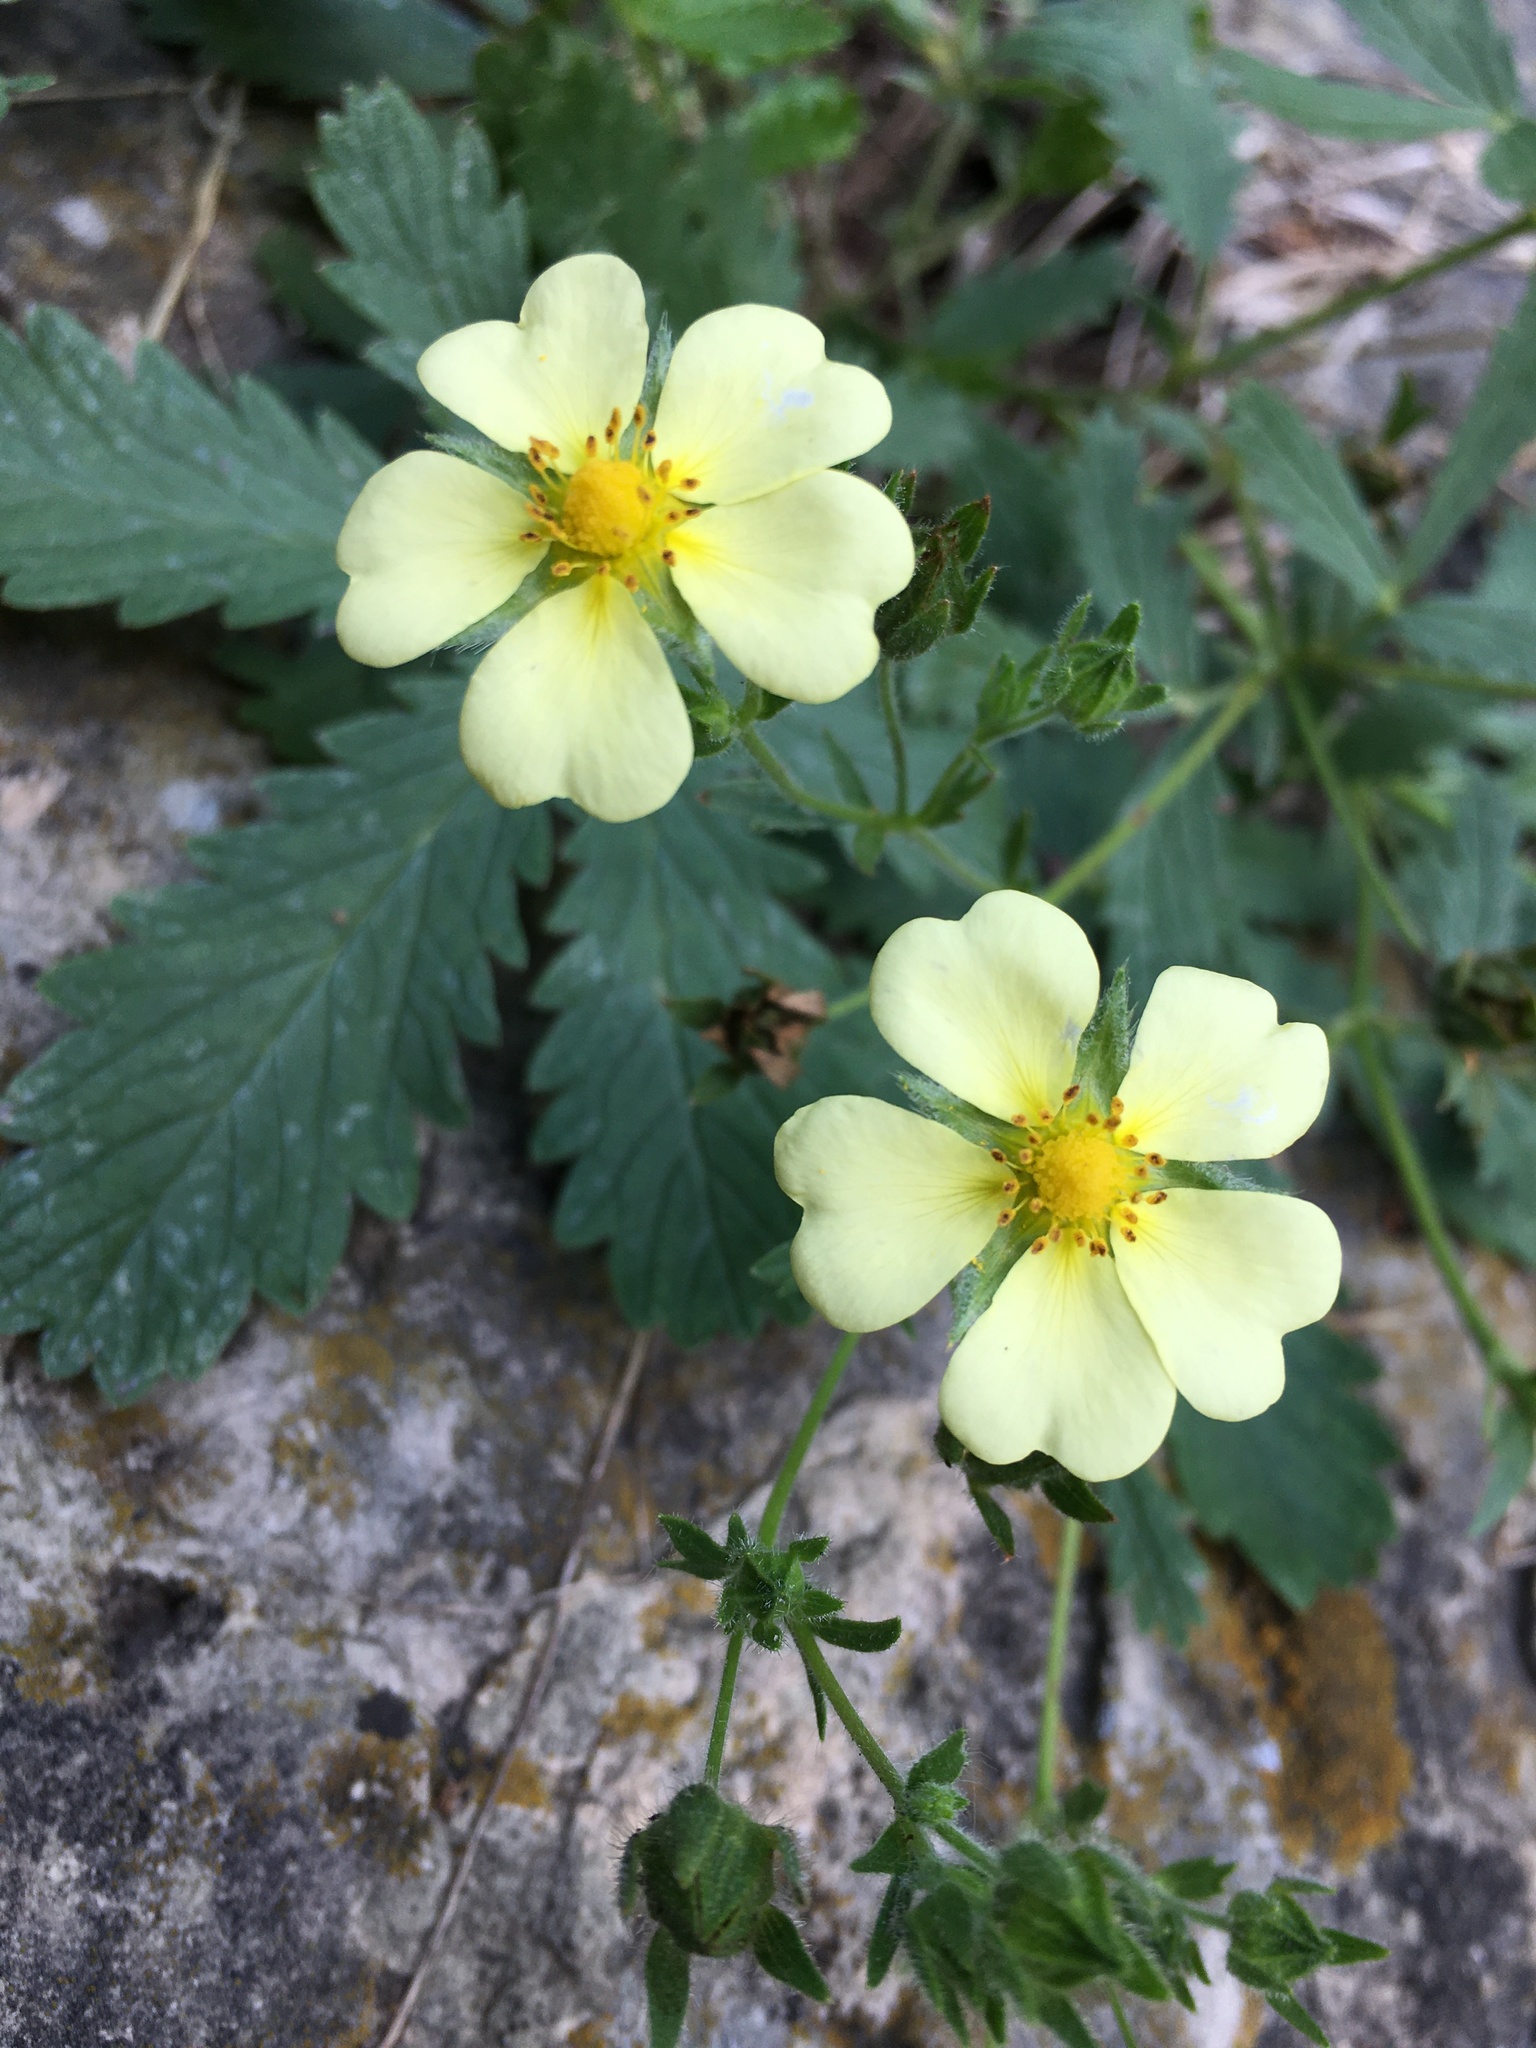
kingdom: Plantae
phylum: Tracheophyta
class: Magnoliopsida
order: Rosales
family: Rosaceae
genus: Potentilla
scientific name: Potentilla recta
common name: Sulphur cinquefoil
